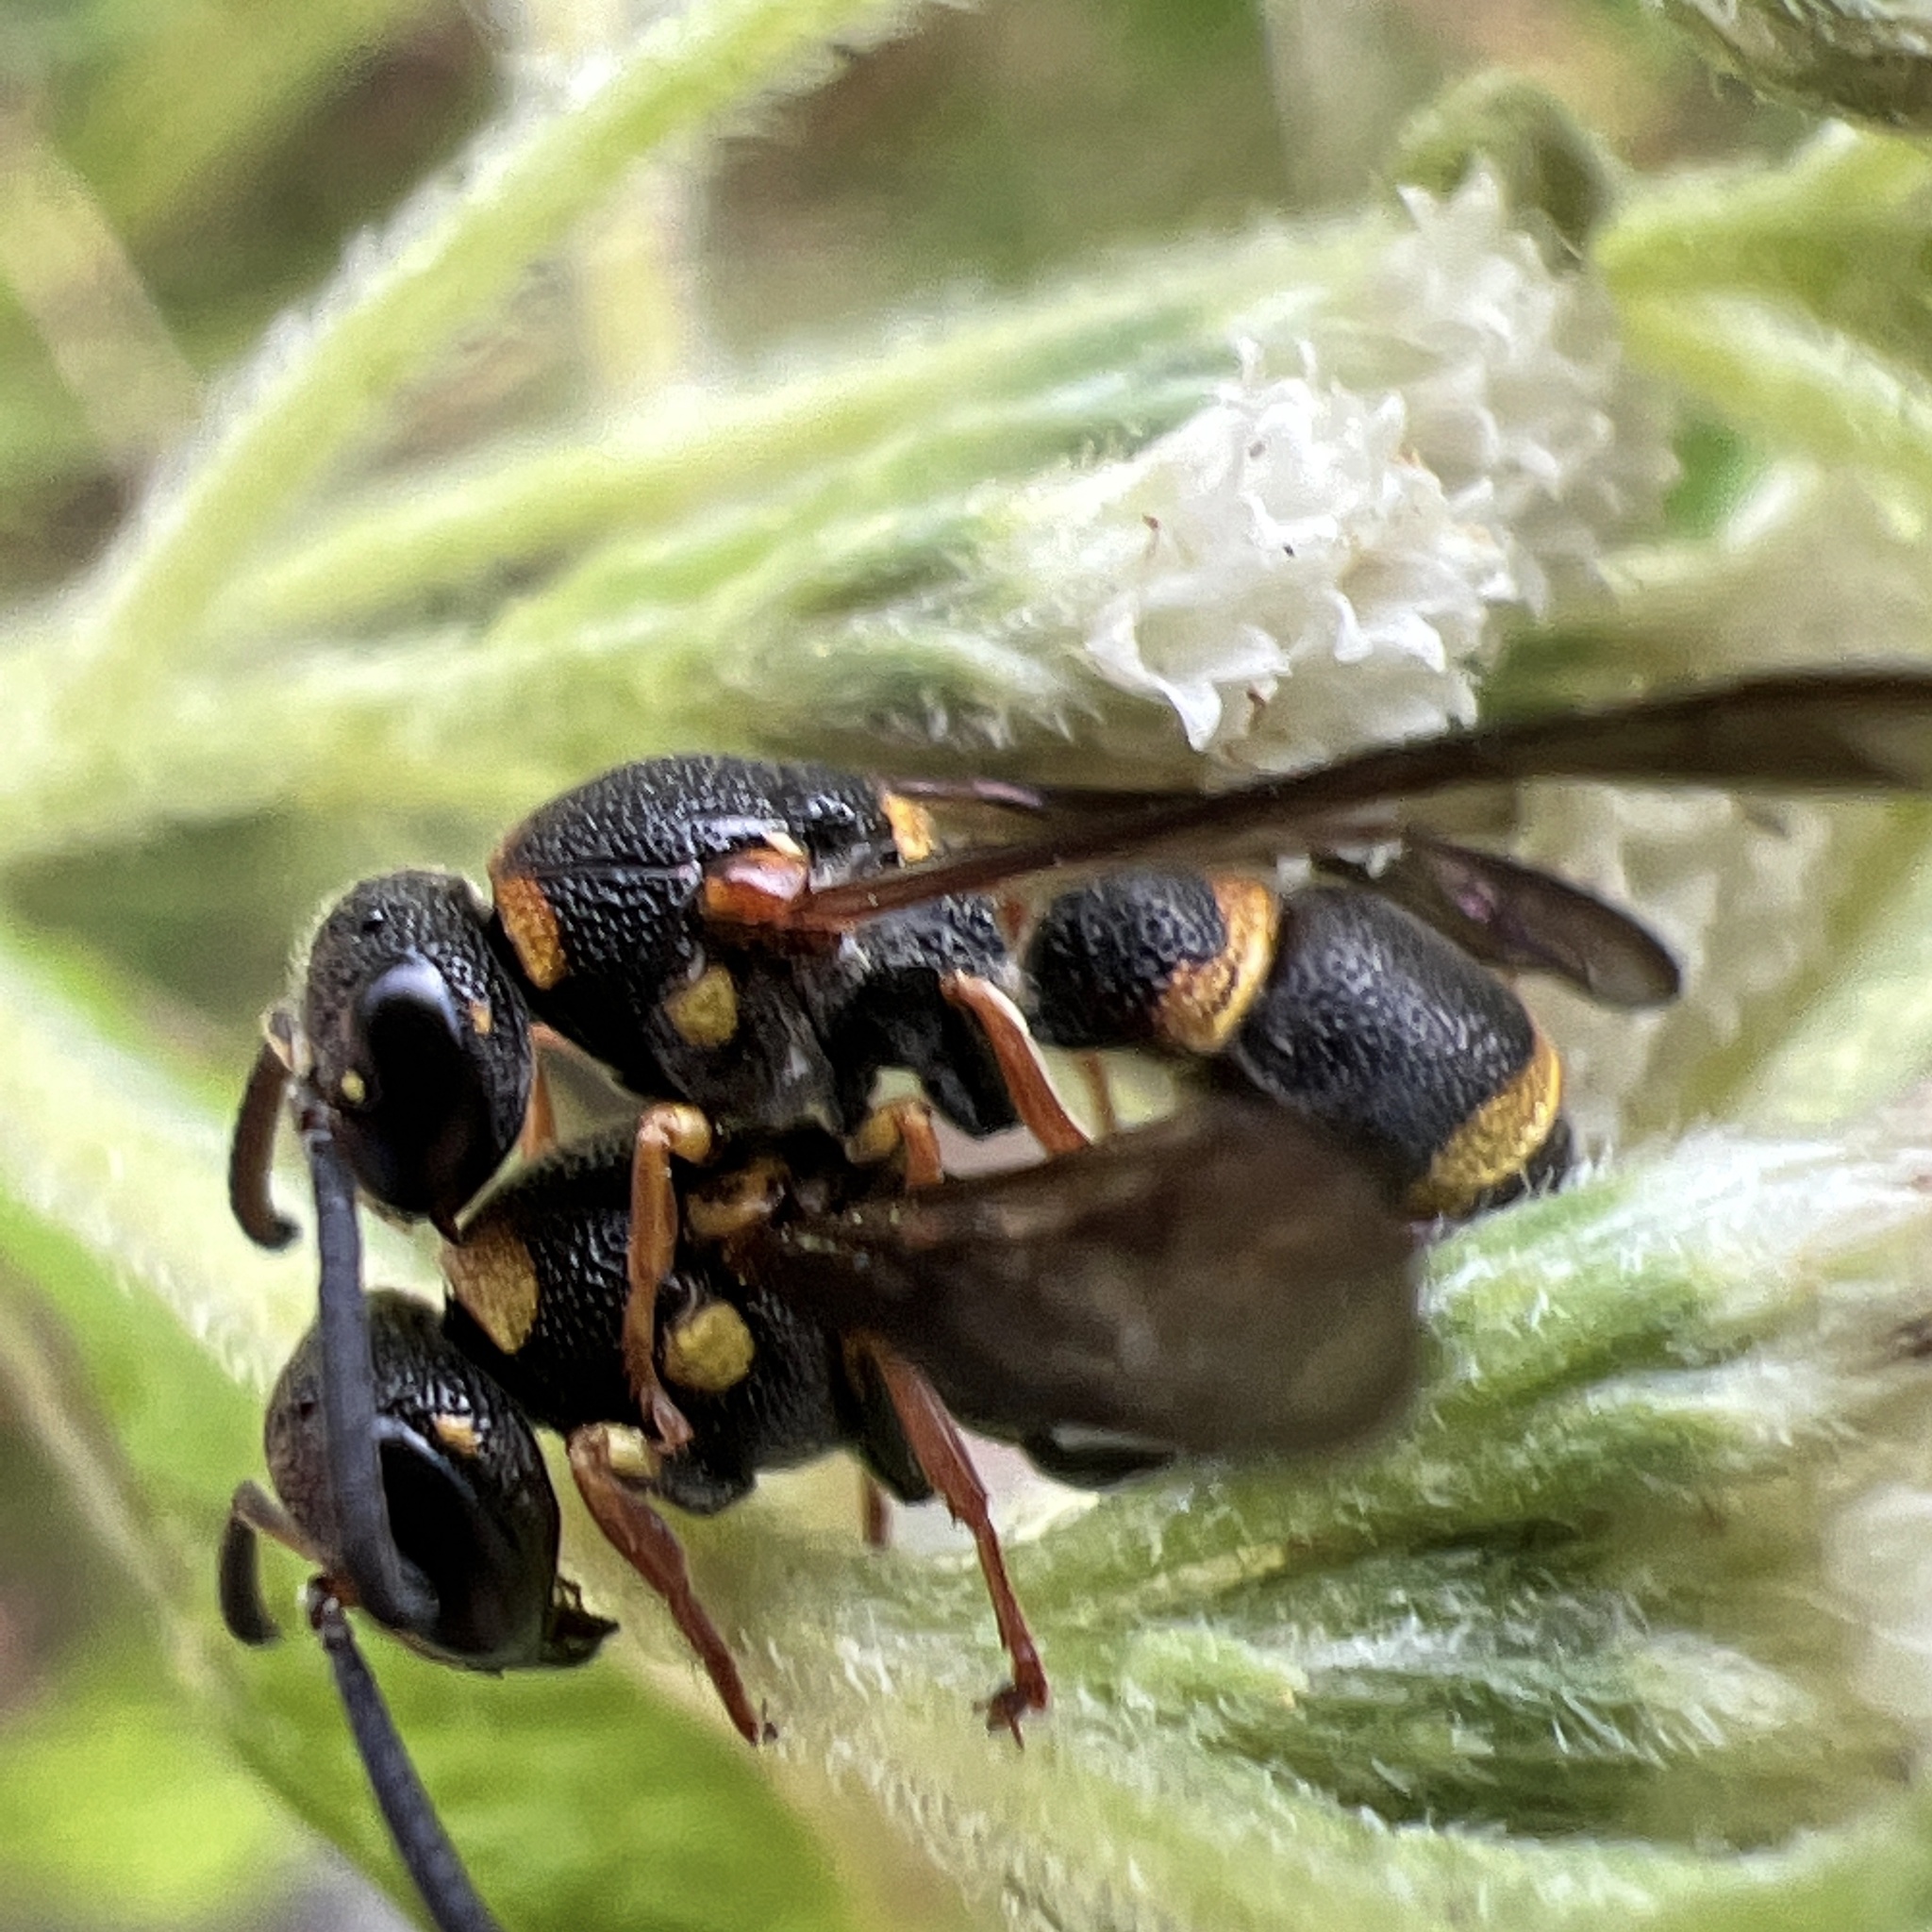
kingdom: Animalia
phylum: Arthropoda
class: Insecta
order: Hymenoptera
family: Eumenidae
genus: Parancistrocerus
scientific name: Parancistrocerus perennis
